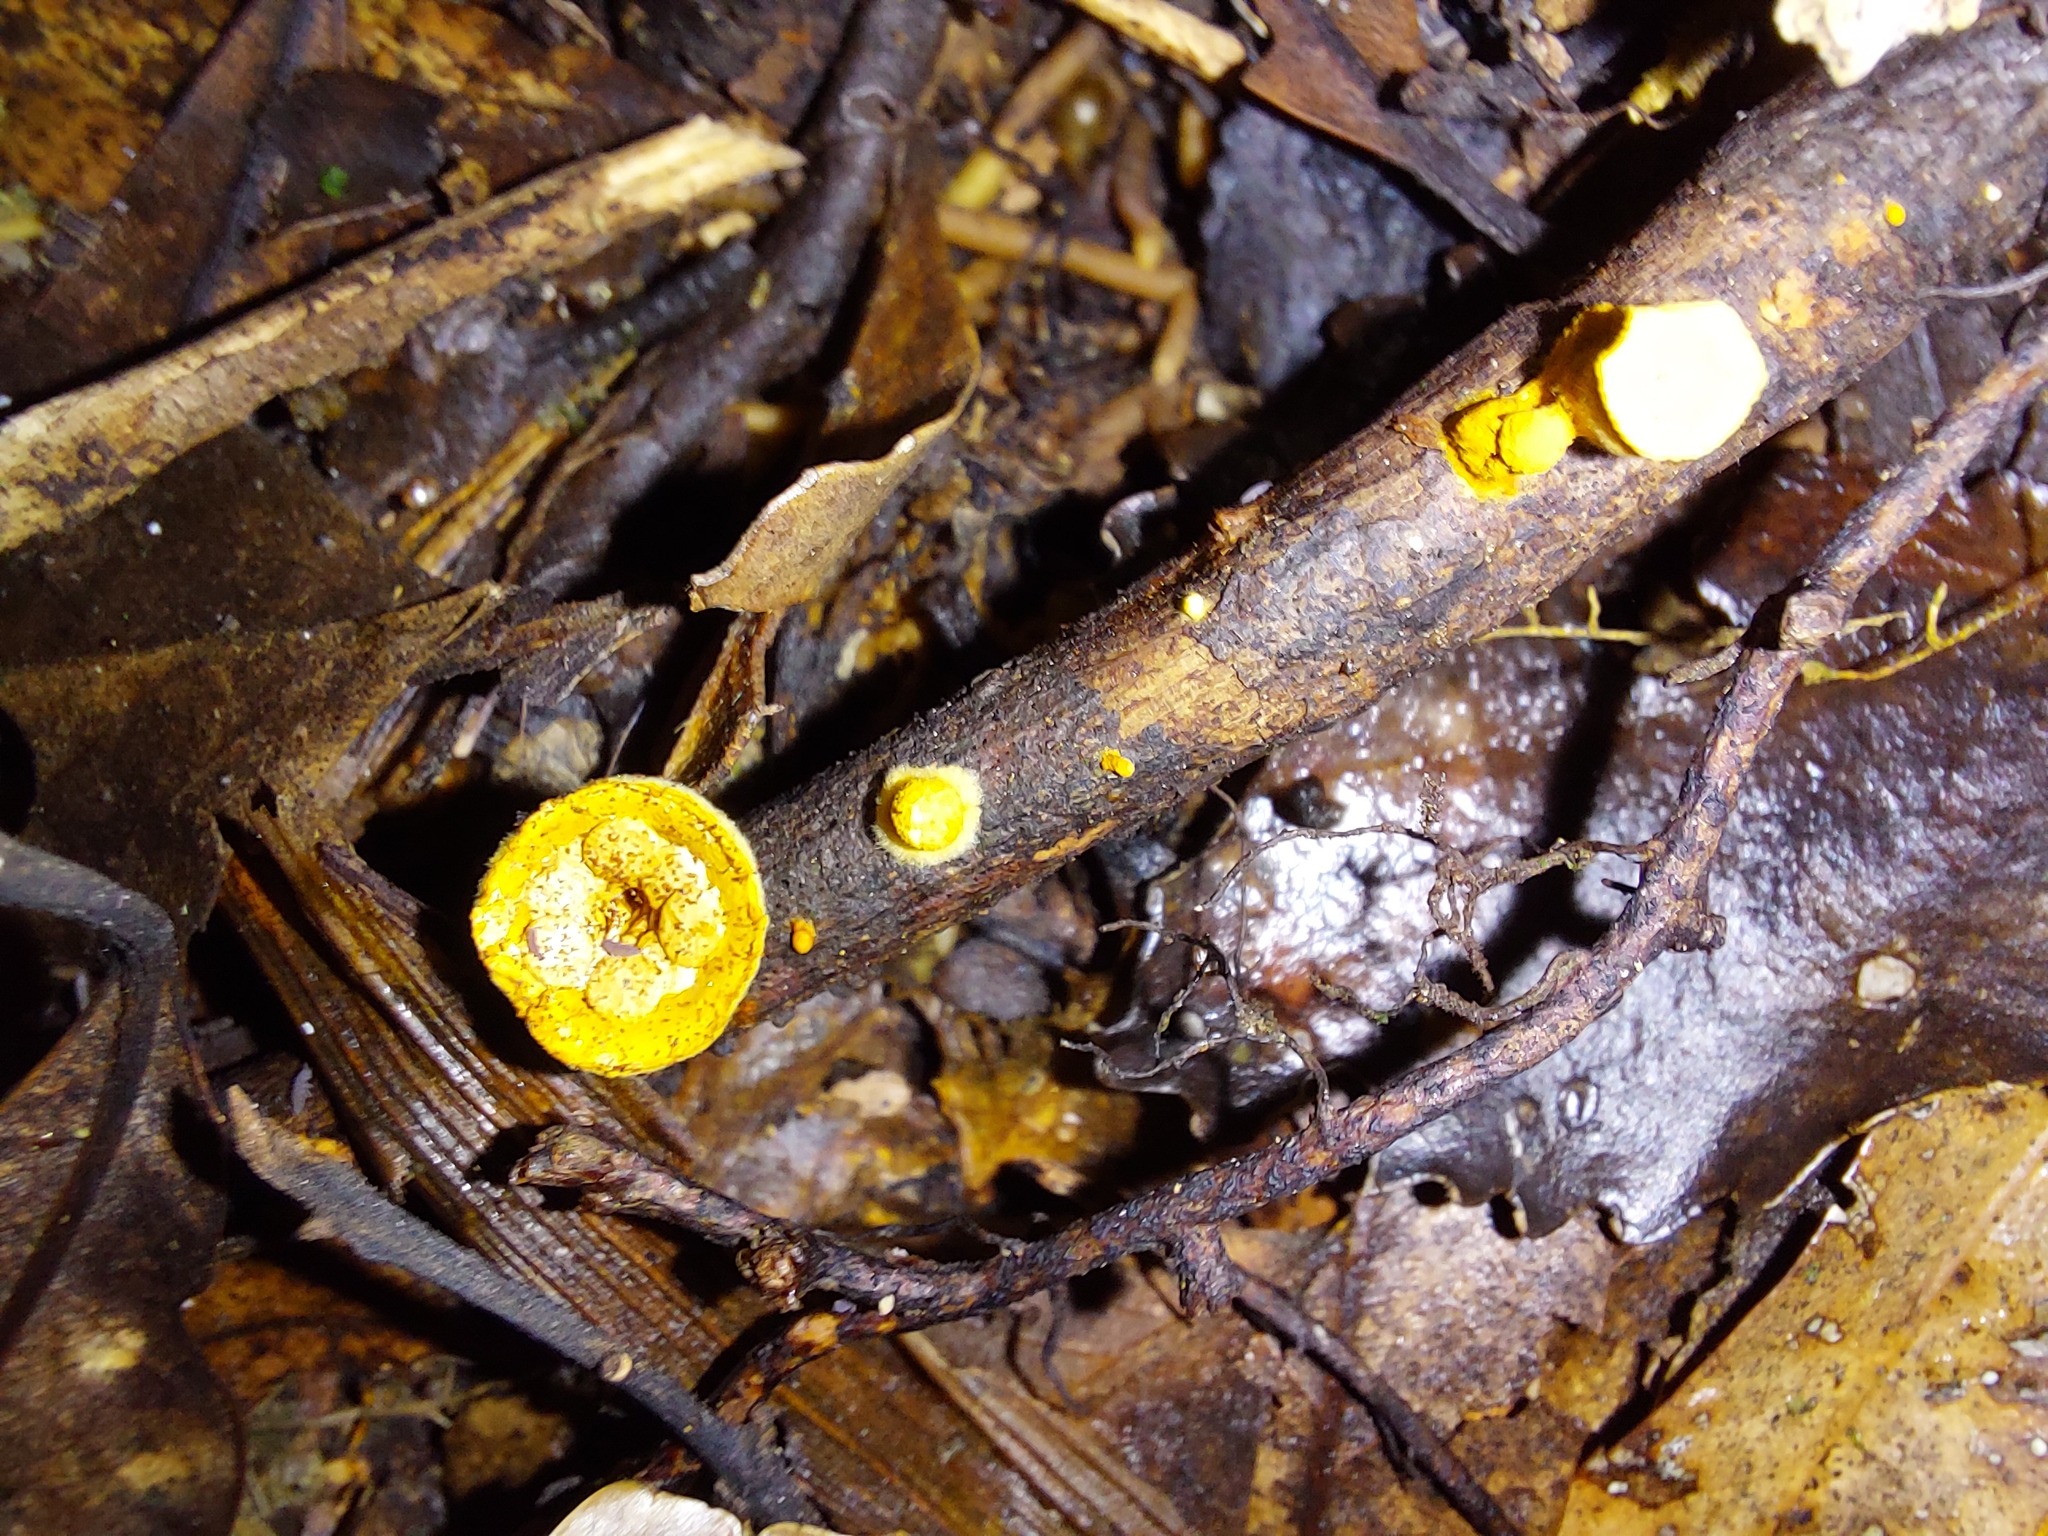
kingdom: Fungi
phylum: Basidiomycota
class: Agaricomycetes
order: Agaricales
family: Nidulariaceae
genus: Crucibulum
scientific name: Crucibulum simile
